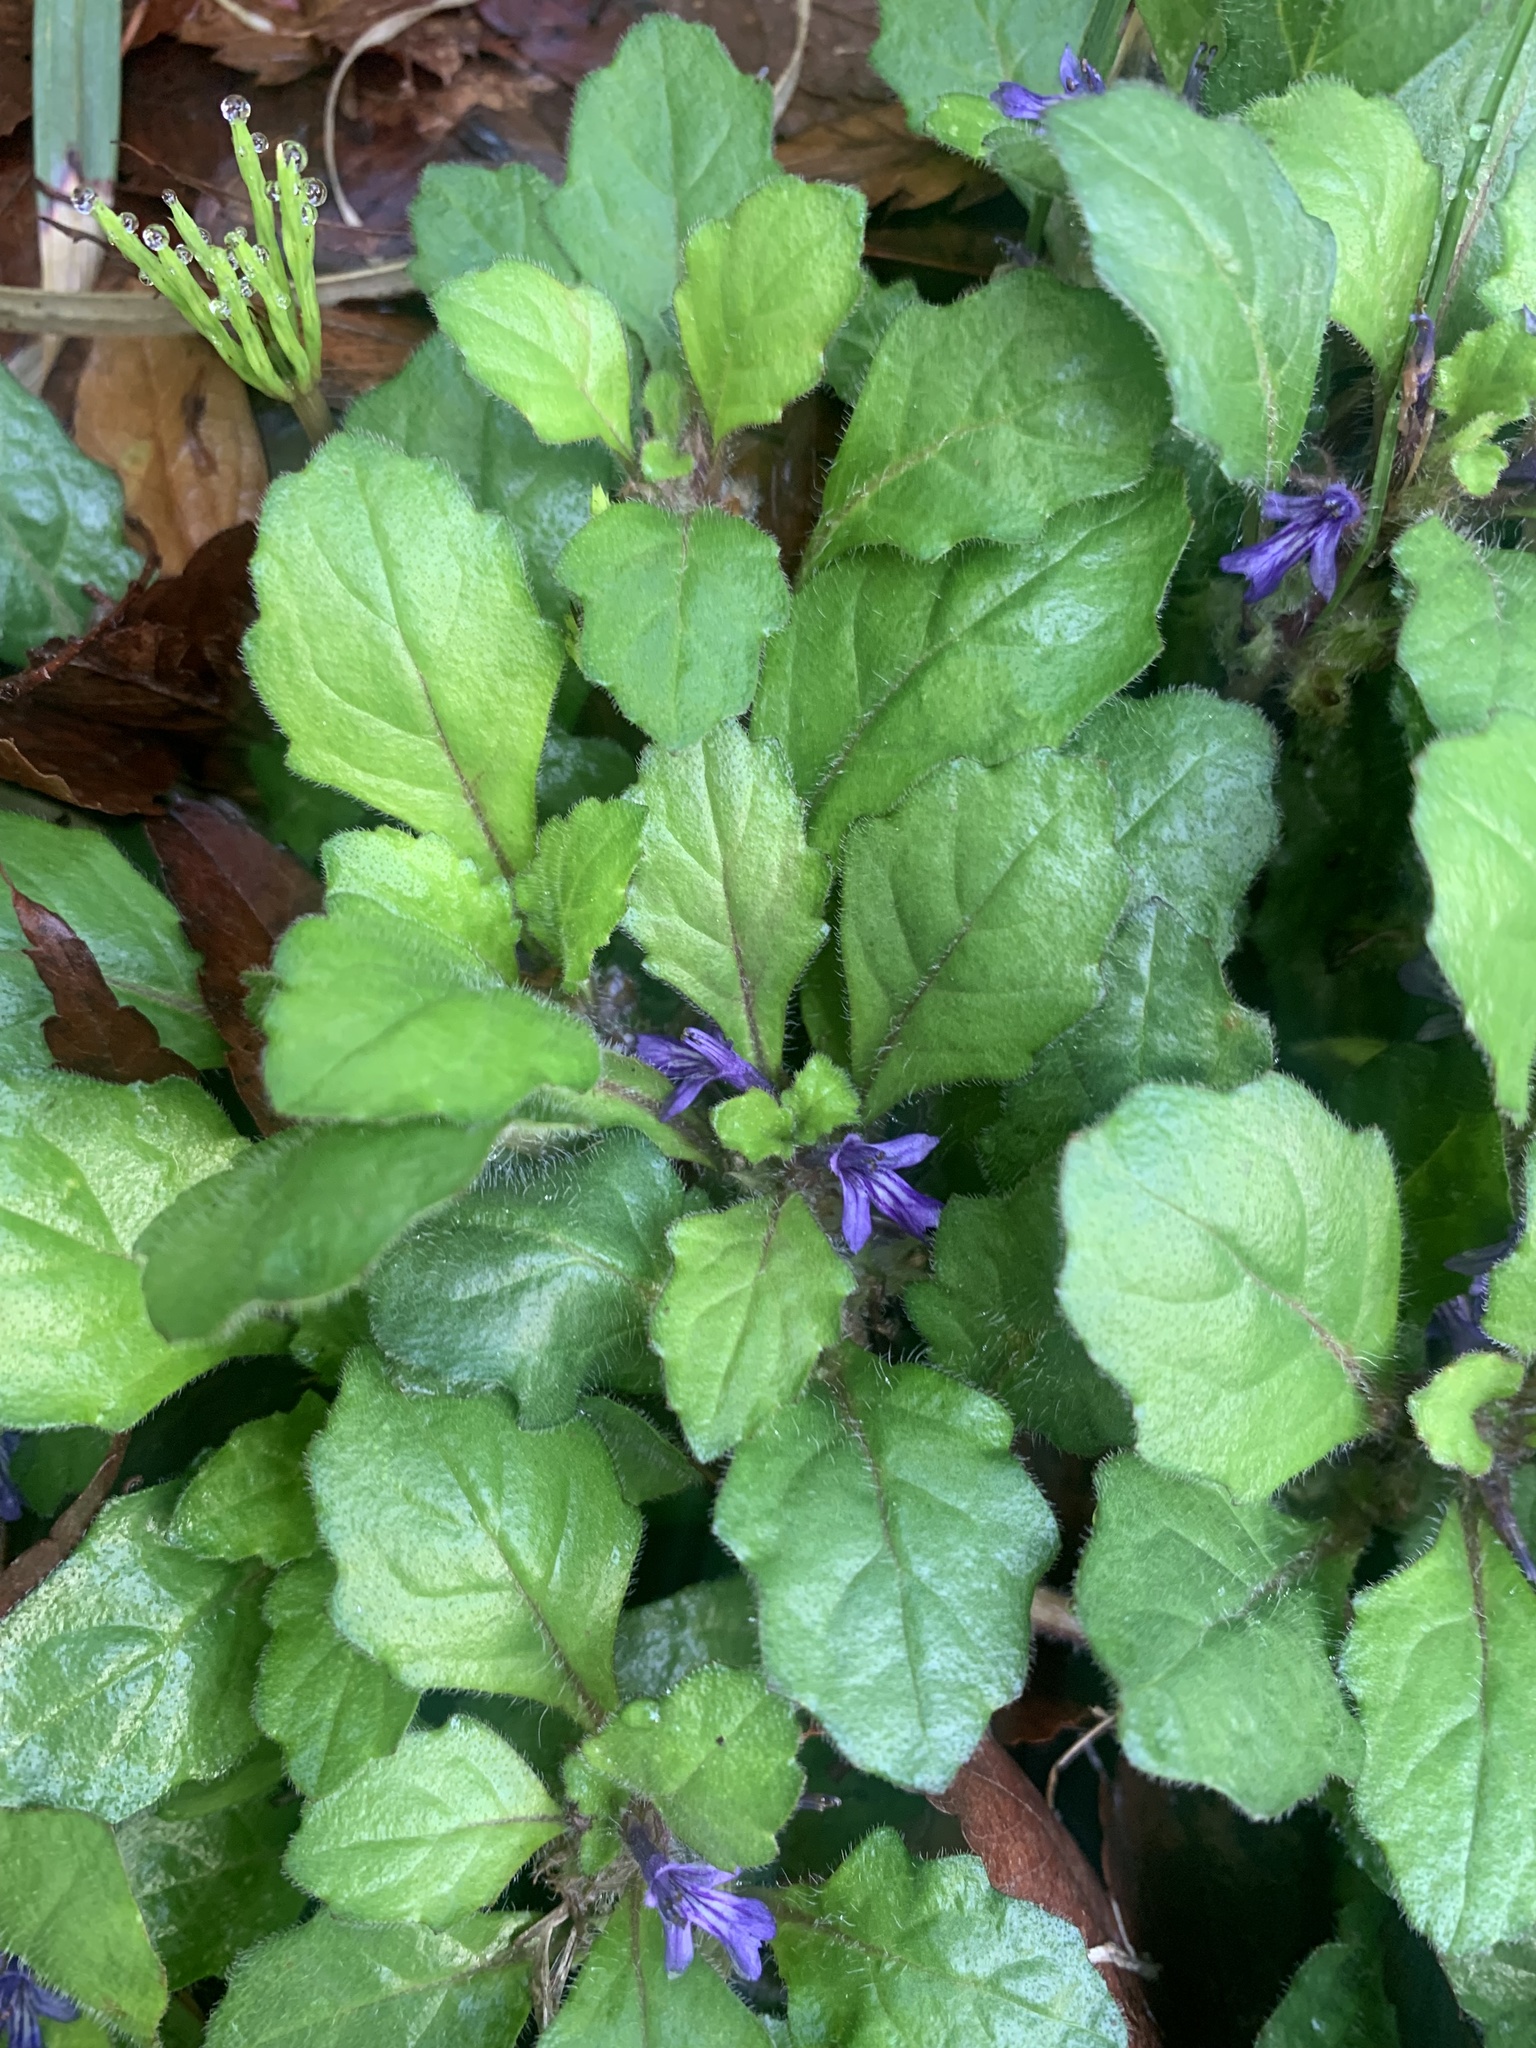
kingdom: Plantae
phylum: Tracheophyta
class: Magnoliopsida
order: Lamiales
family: Lamiaceae
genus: Ajuga
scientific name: Ajuga decumbens
